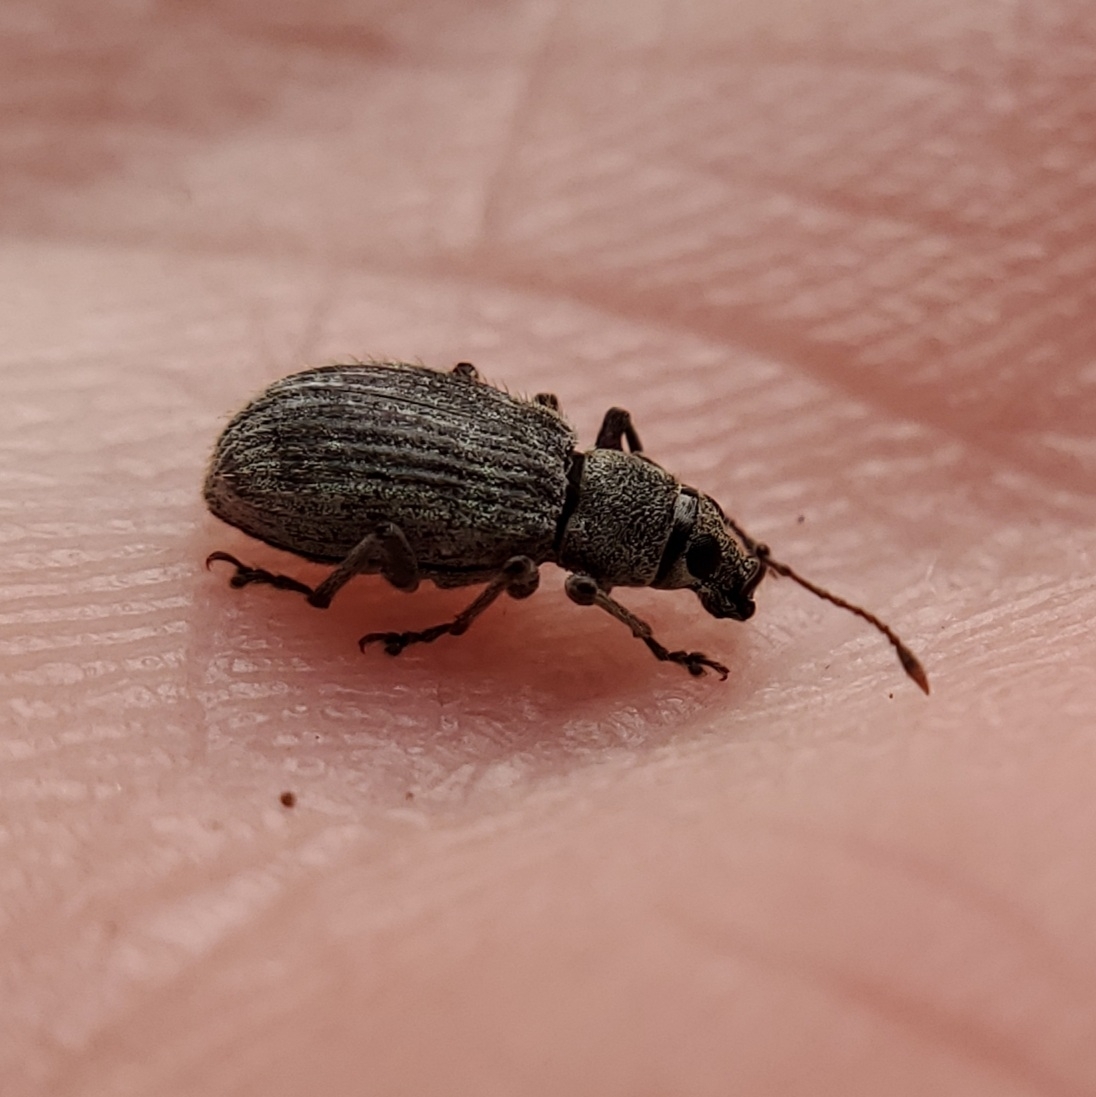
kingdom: Animalia
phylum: Arthropoda
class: Insecta
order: Coleoptera
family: Curculionidae
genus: Cyrtepistomus
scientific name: Cyrtepistomus castaneus
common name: Weevil
